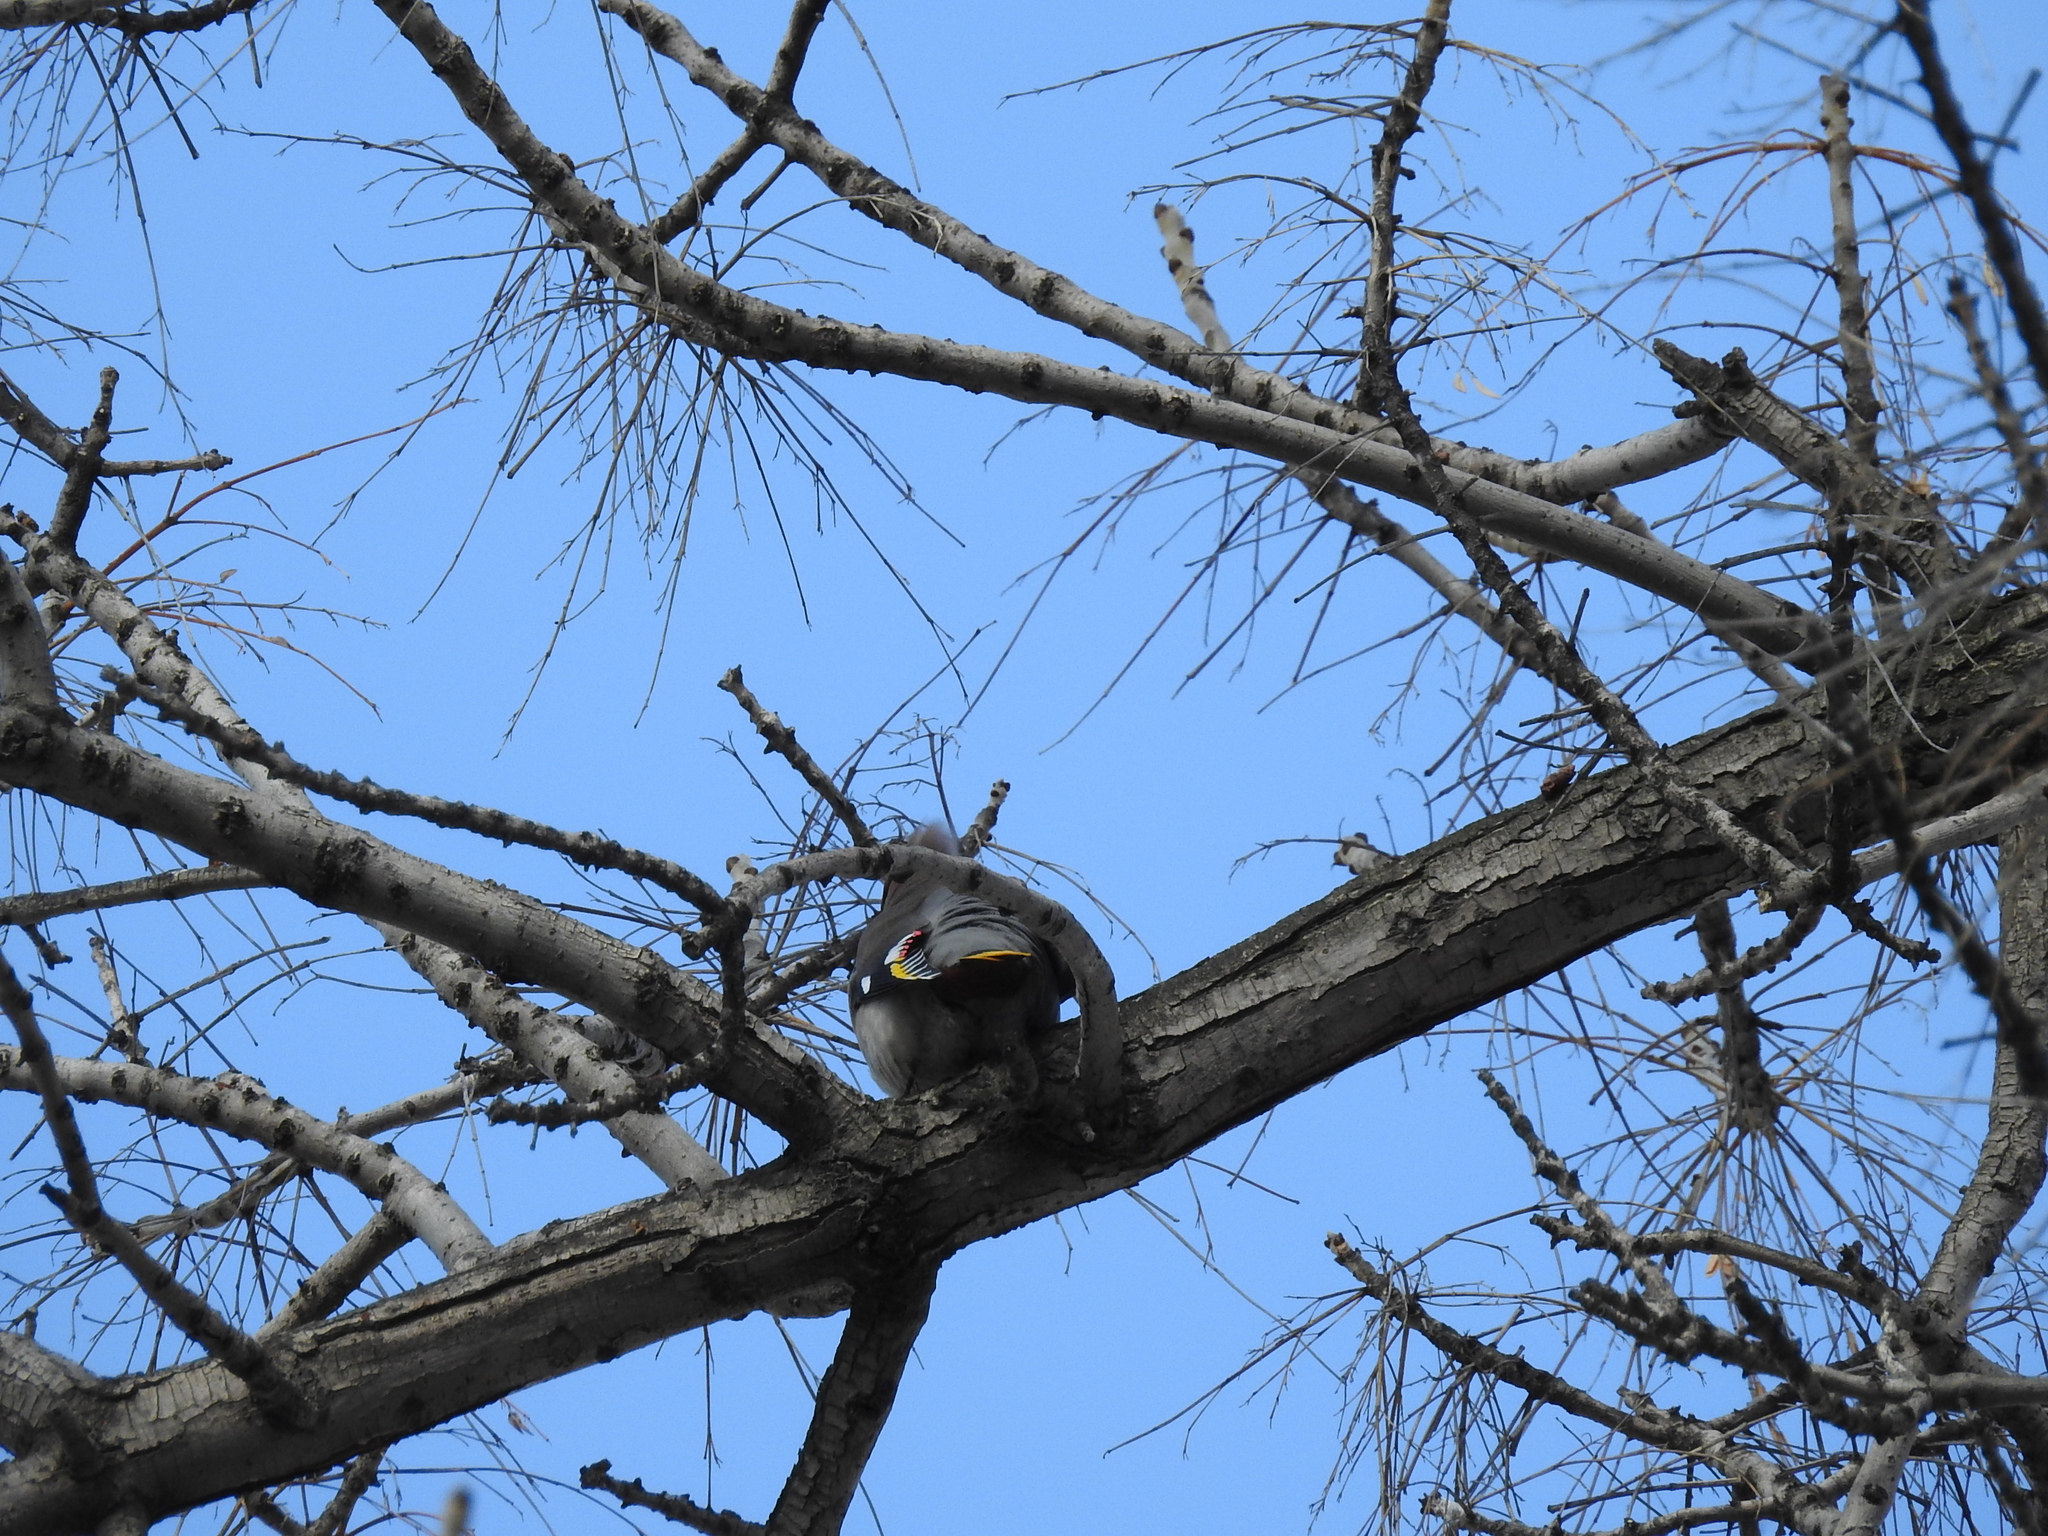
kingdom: Animalia
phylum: Chordata
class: Aves
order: Passeriformes
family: Bombycillidae
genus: Bombycilla
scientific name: Bombycilla garrulus
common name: Bohemian waxwing
